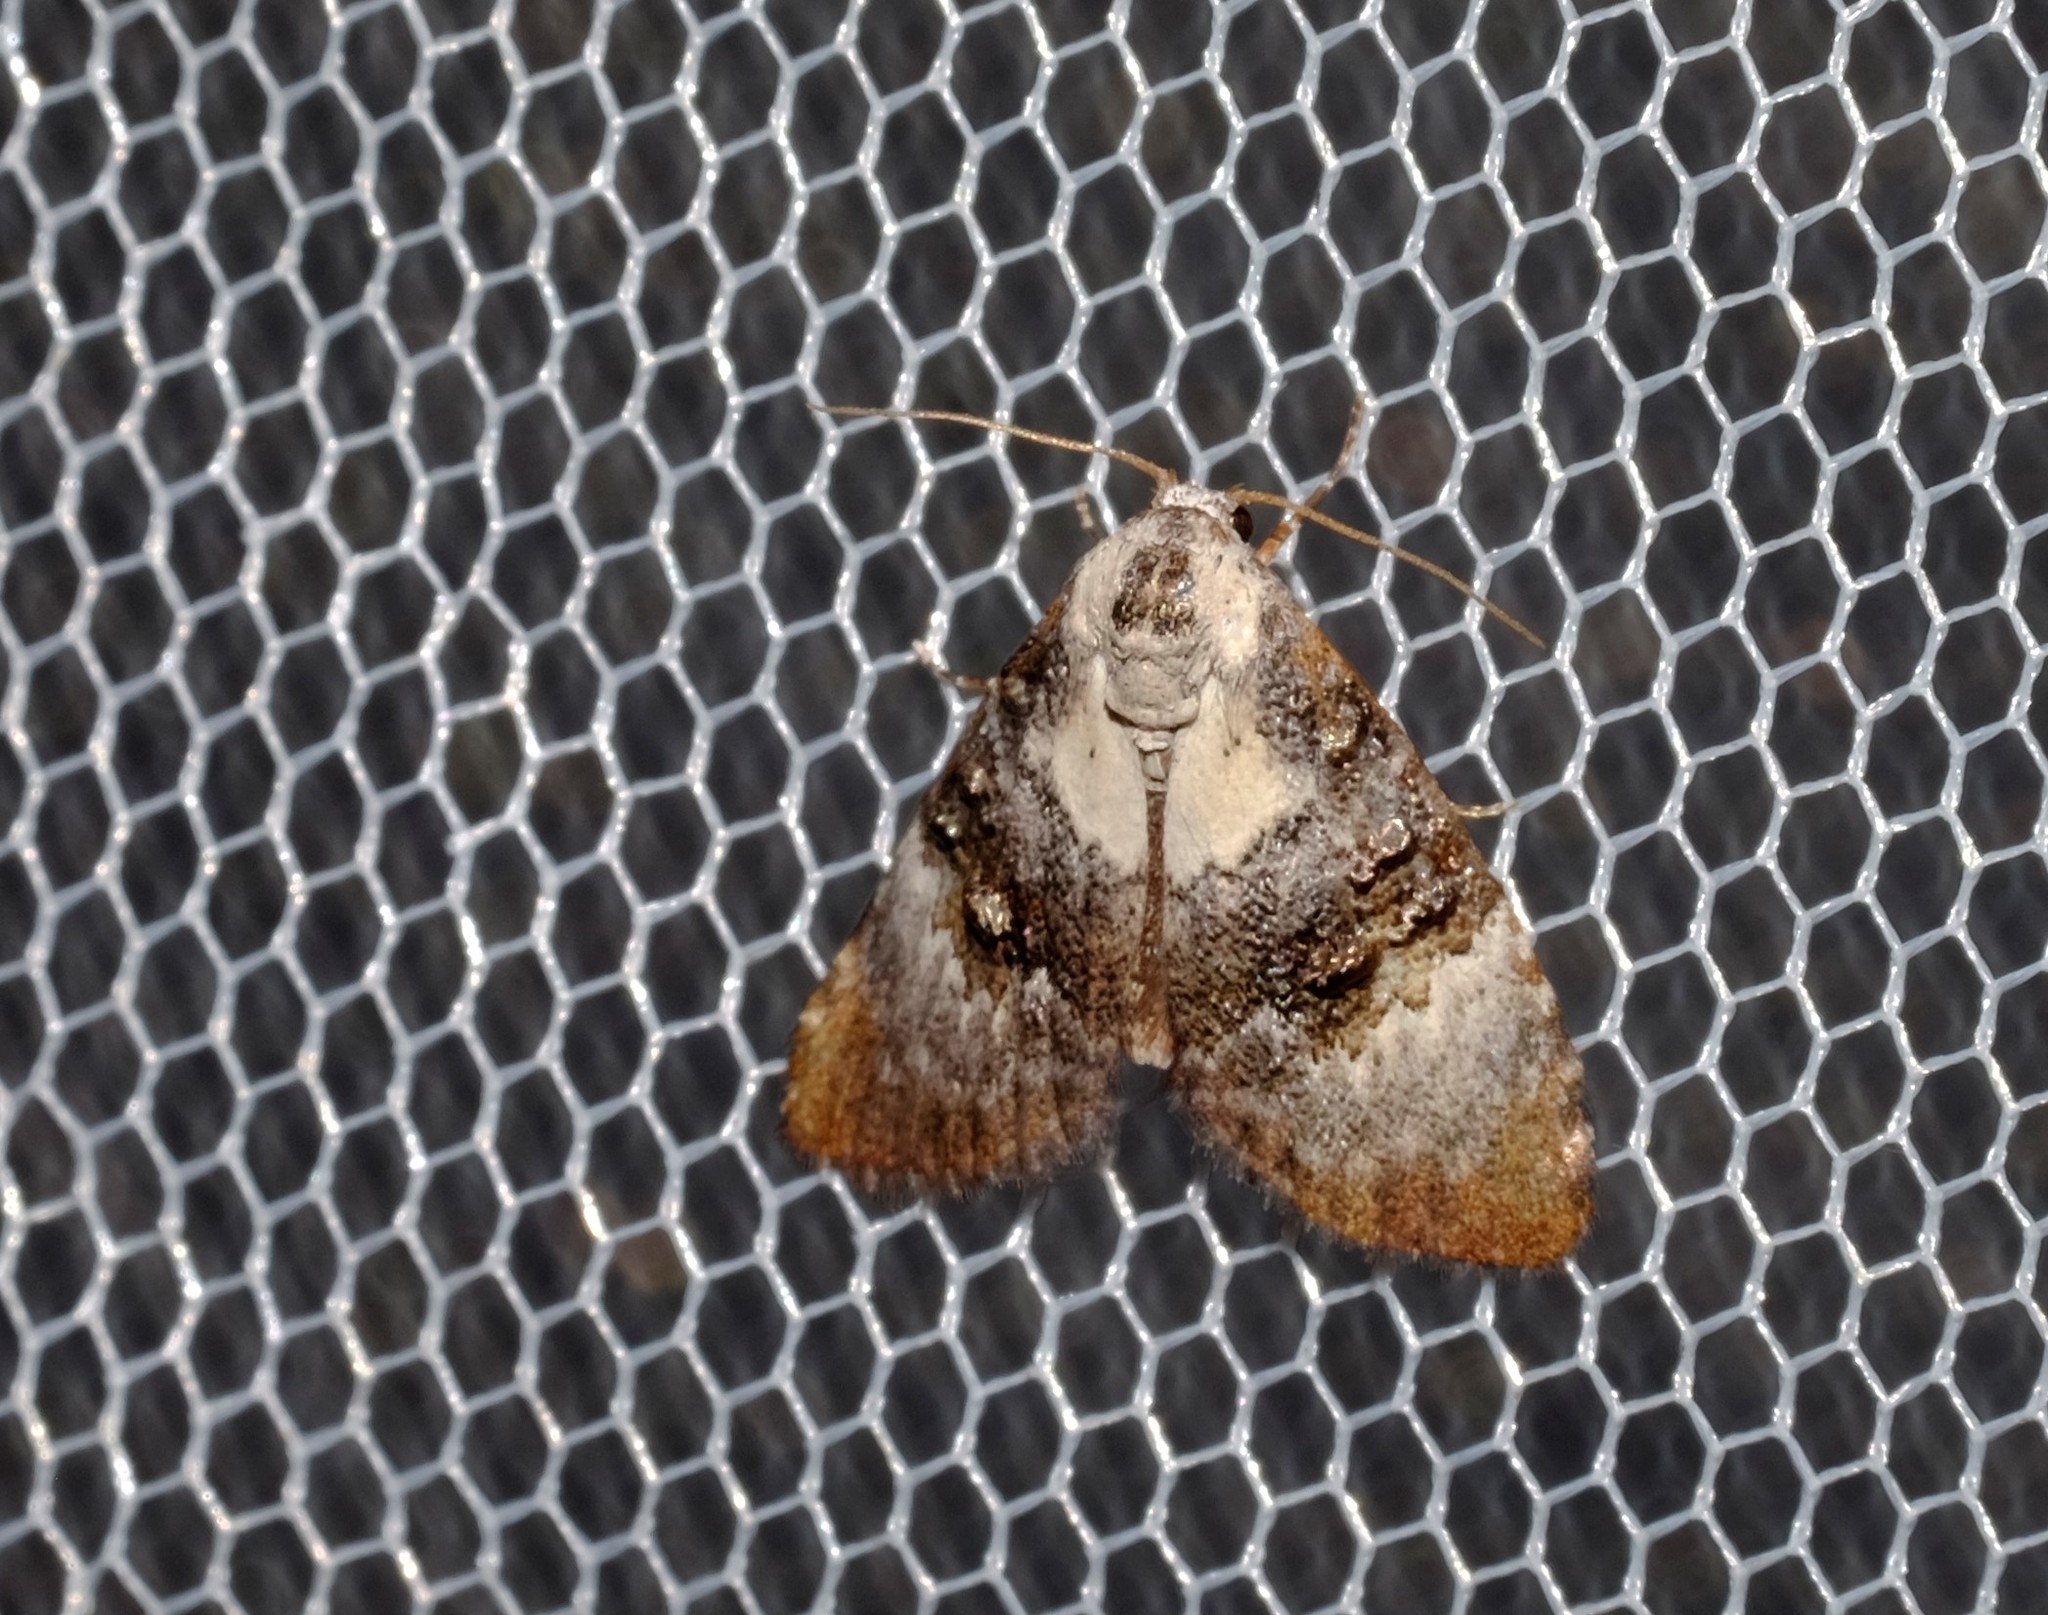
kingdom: Animalia
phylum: Arthropoda
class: Insecta
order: Lepidoptera
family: Nolidae
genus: Acatapaustus
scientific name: Acatapaustus leucospila
